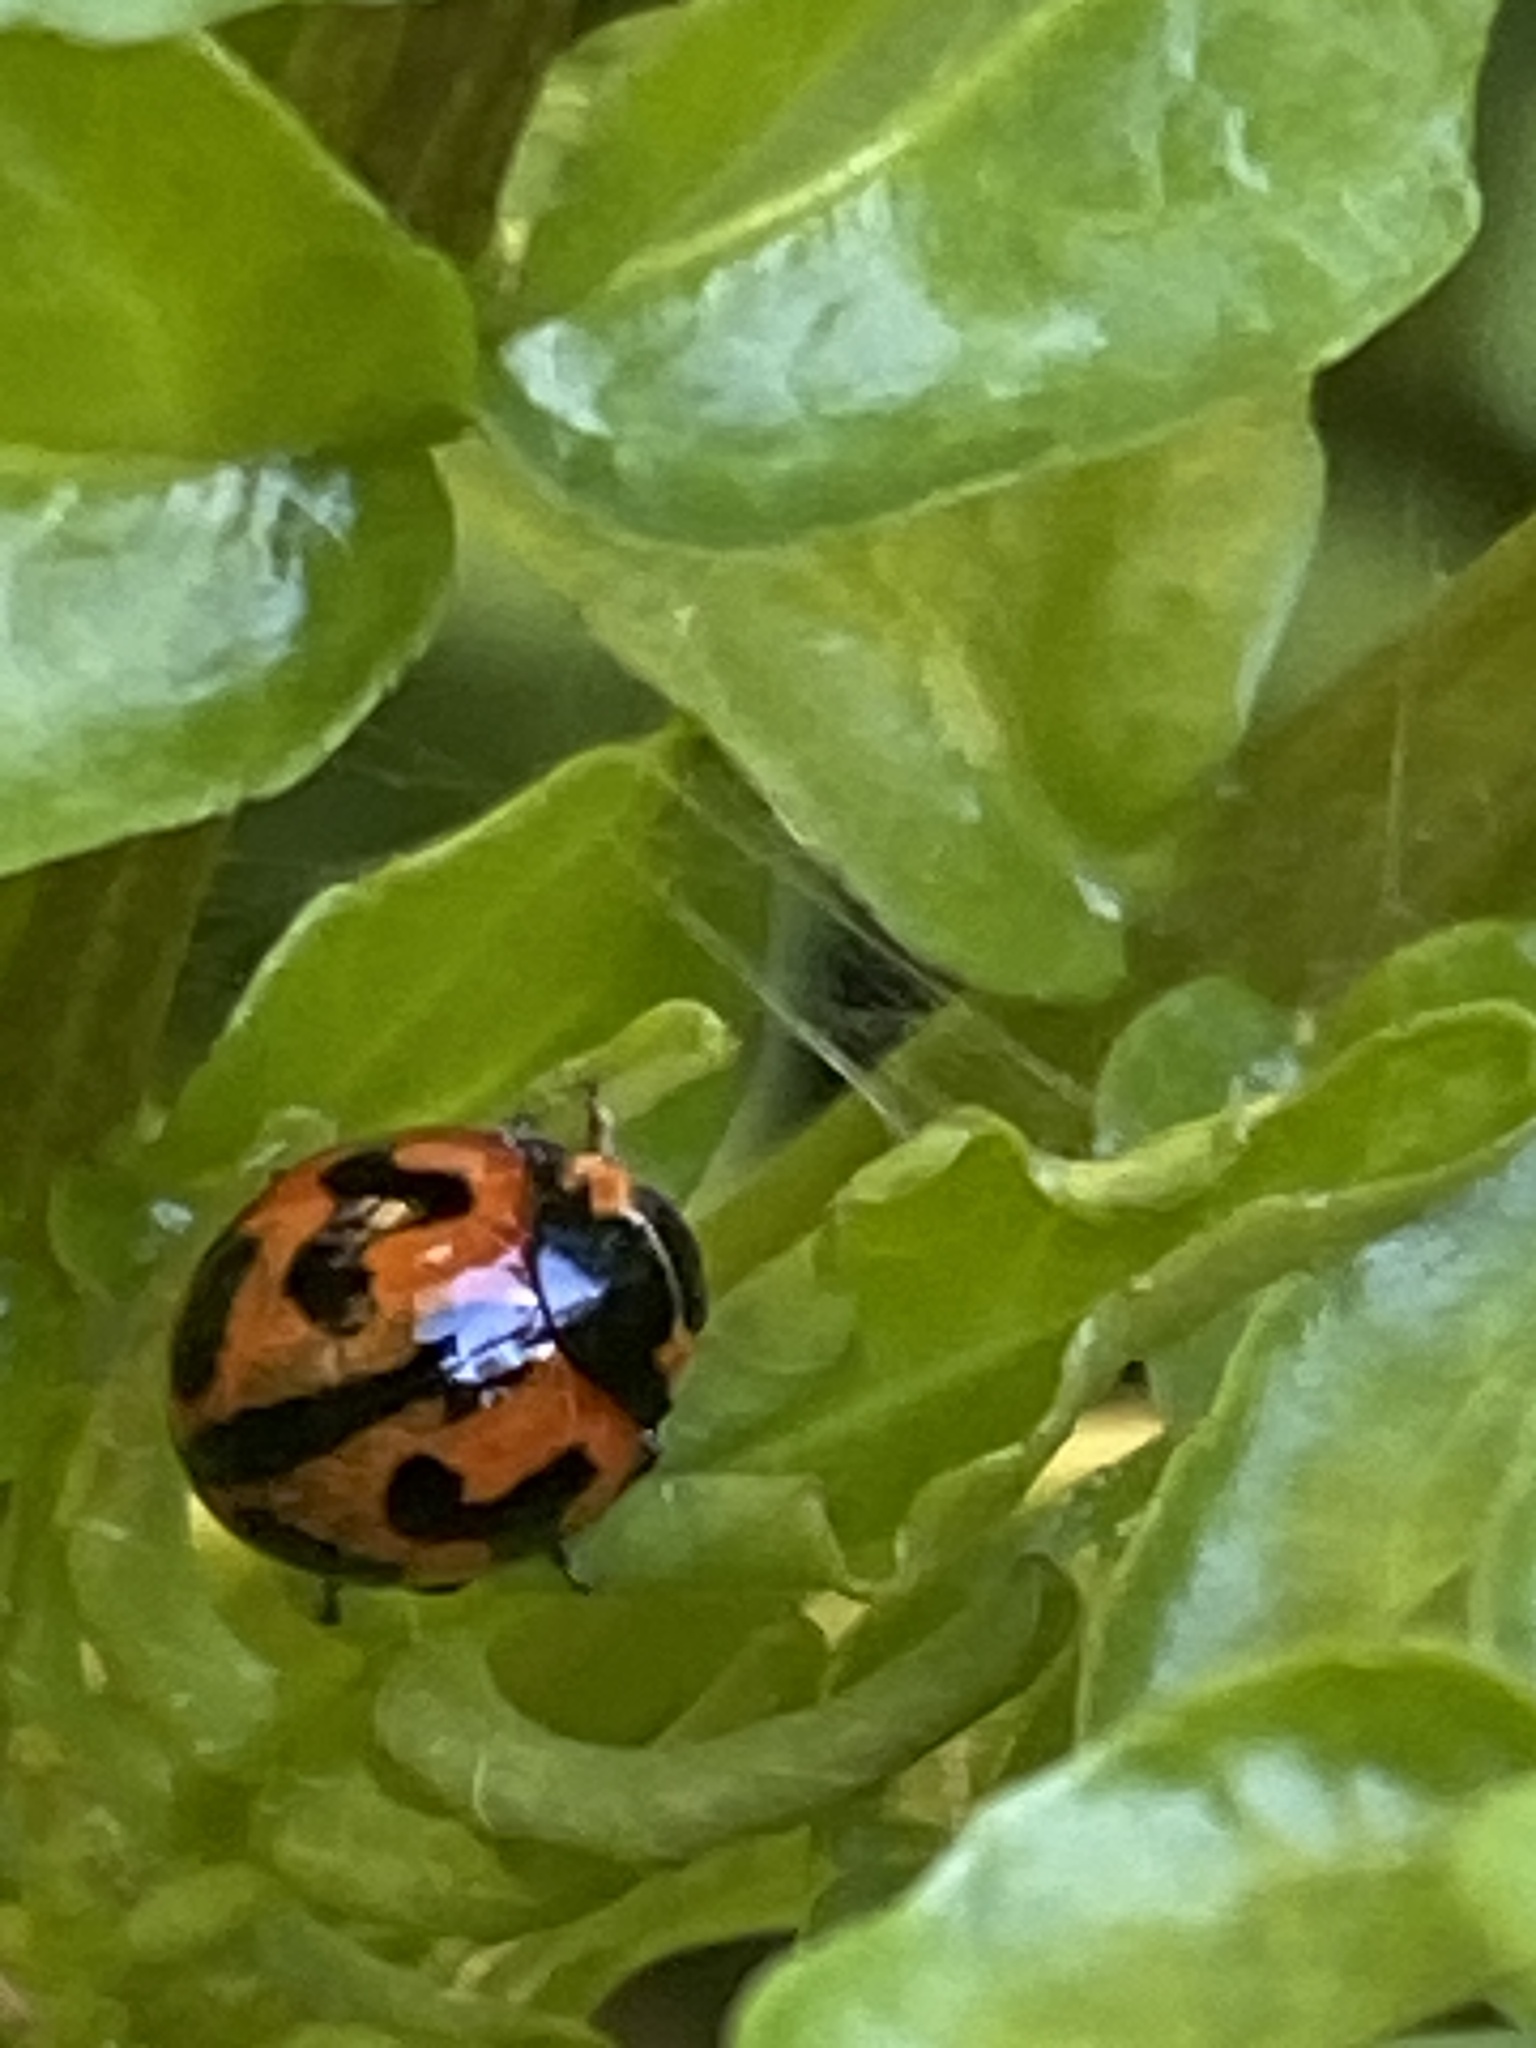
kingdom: Animalia
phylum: Arthropoda
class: Insecta
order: Coleoptera
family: Coccinellidae
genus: Coccinella
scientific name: Coccinella transversalis
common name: Transverse lady beetle
